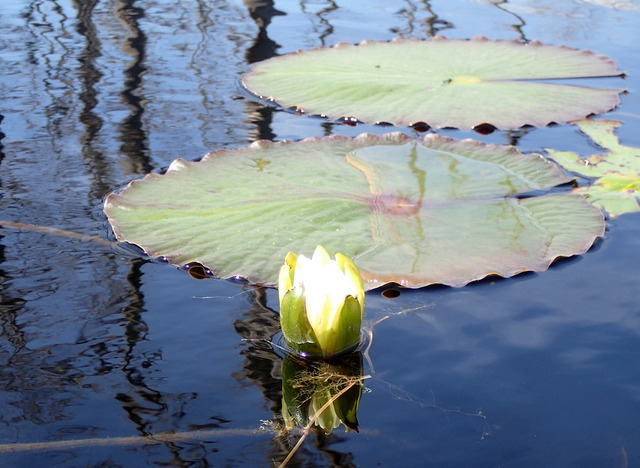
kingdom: Plantae
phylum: Tracheophyta
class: Magnoliopsida
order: Nymphaeales
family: Nymphaeaceae
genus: Nymphaea
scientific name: Nymphaea odorata
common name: Fragrant water-lily
